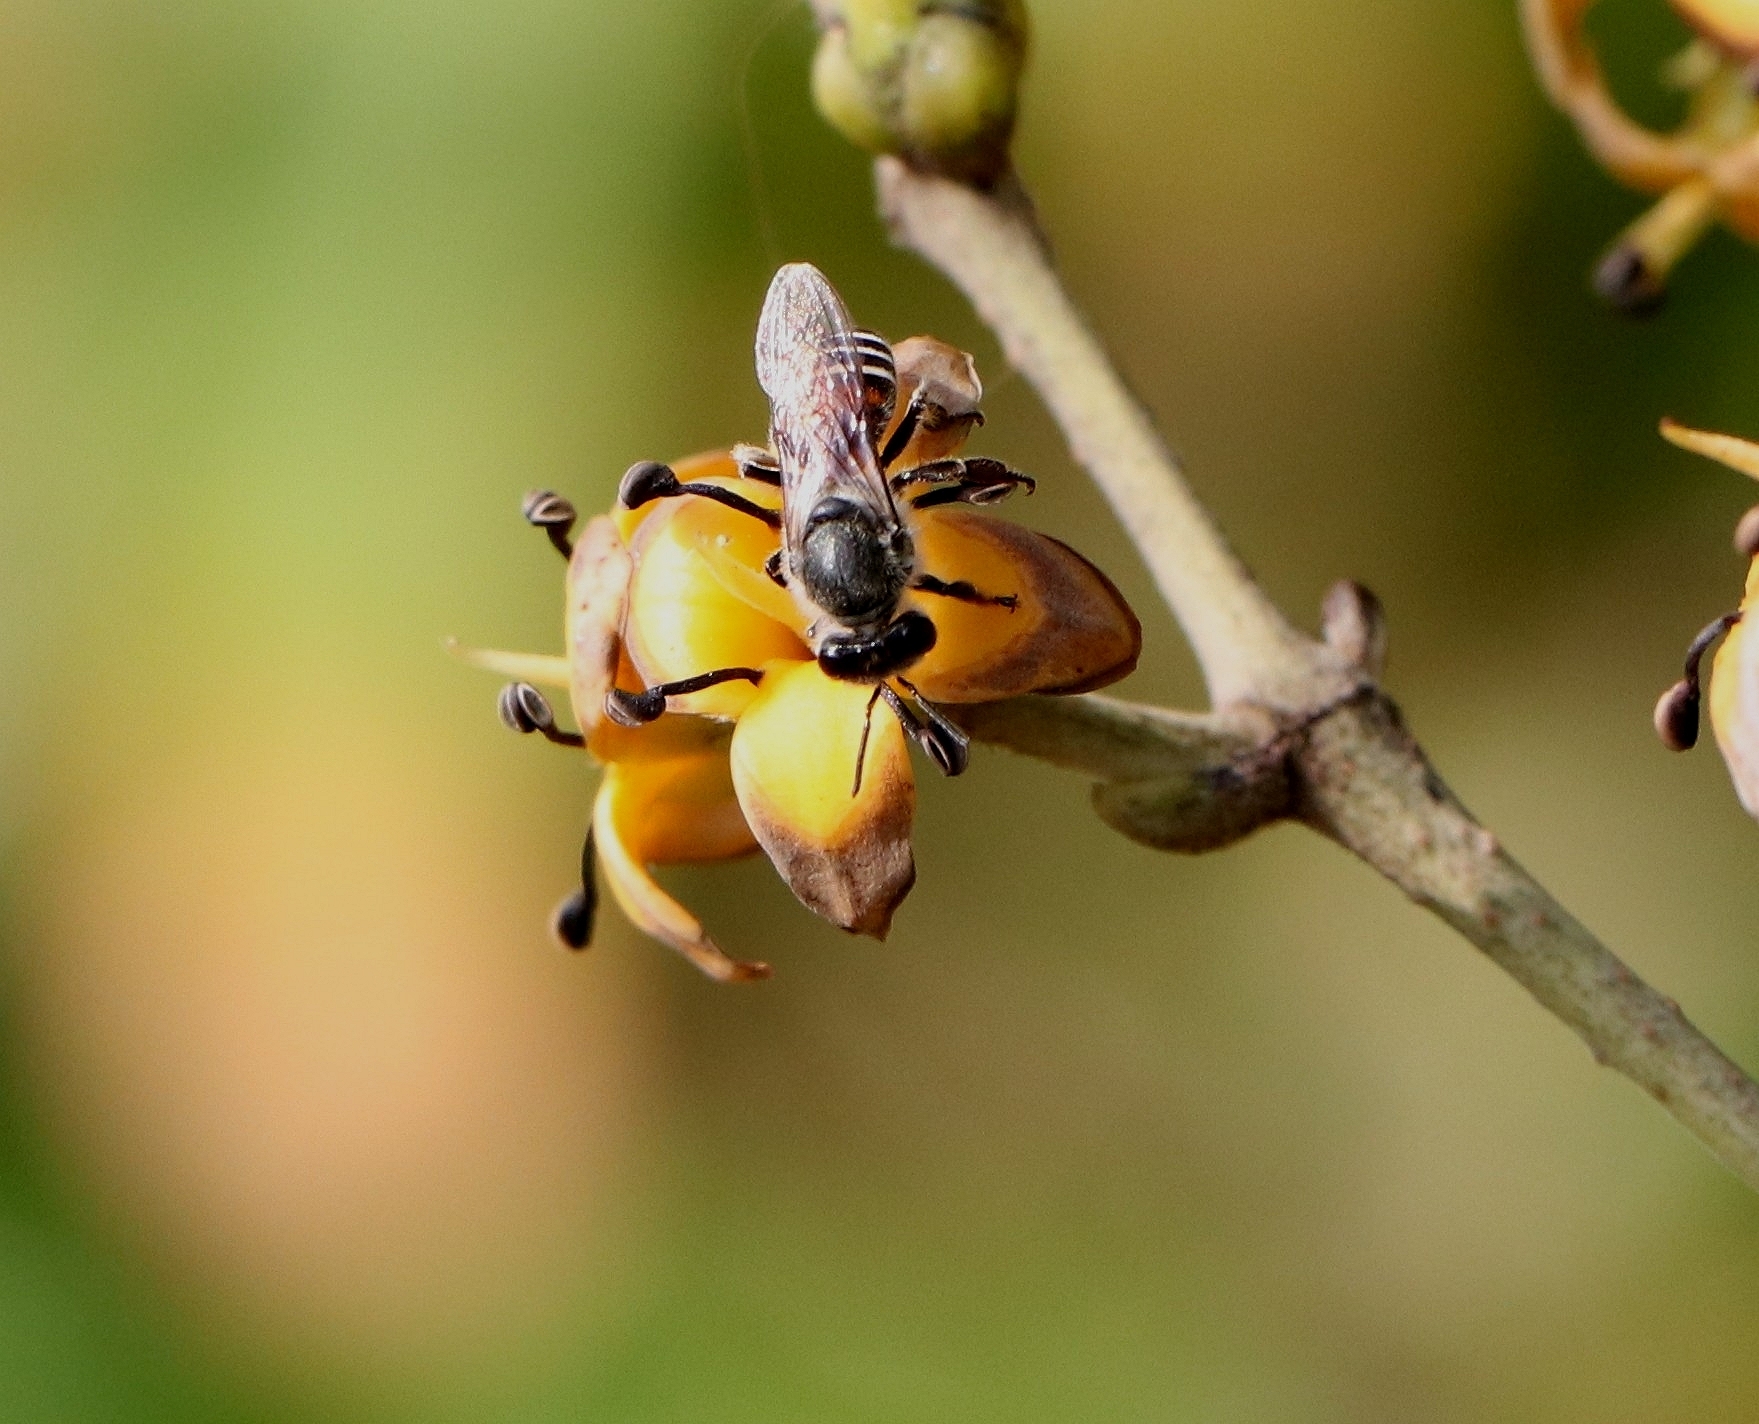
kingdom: Animalia
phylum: Arthropoda
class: Insecta
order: Hymenoptera
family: Apidae
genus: Apis
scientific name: Apis florea
